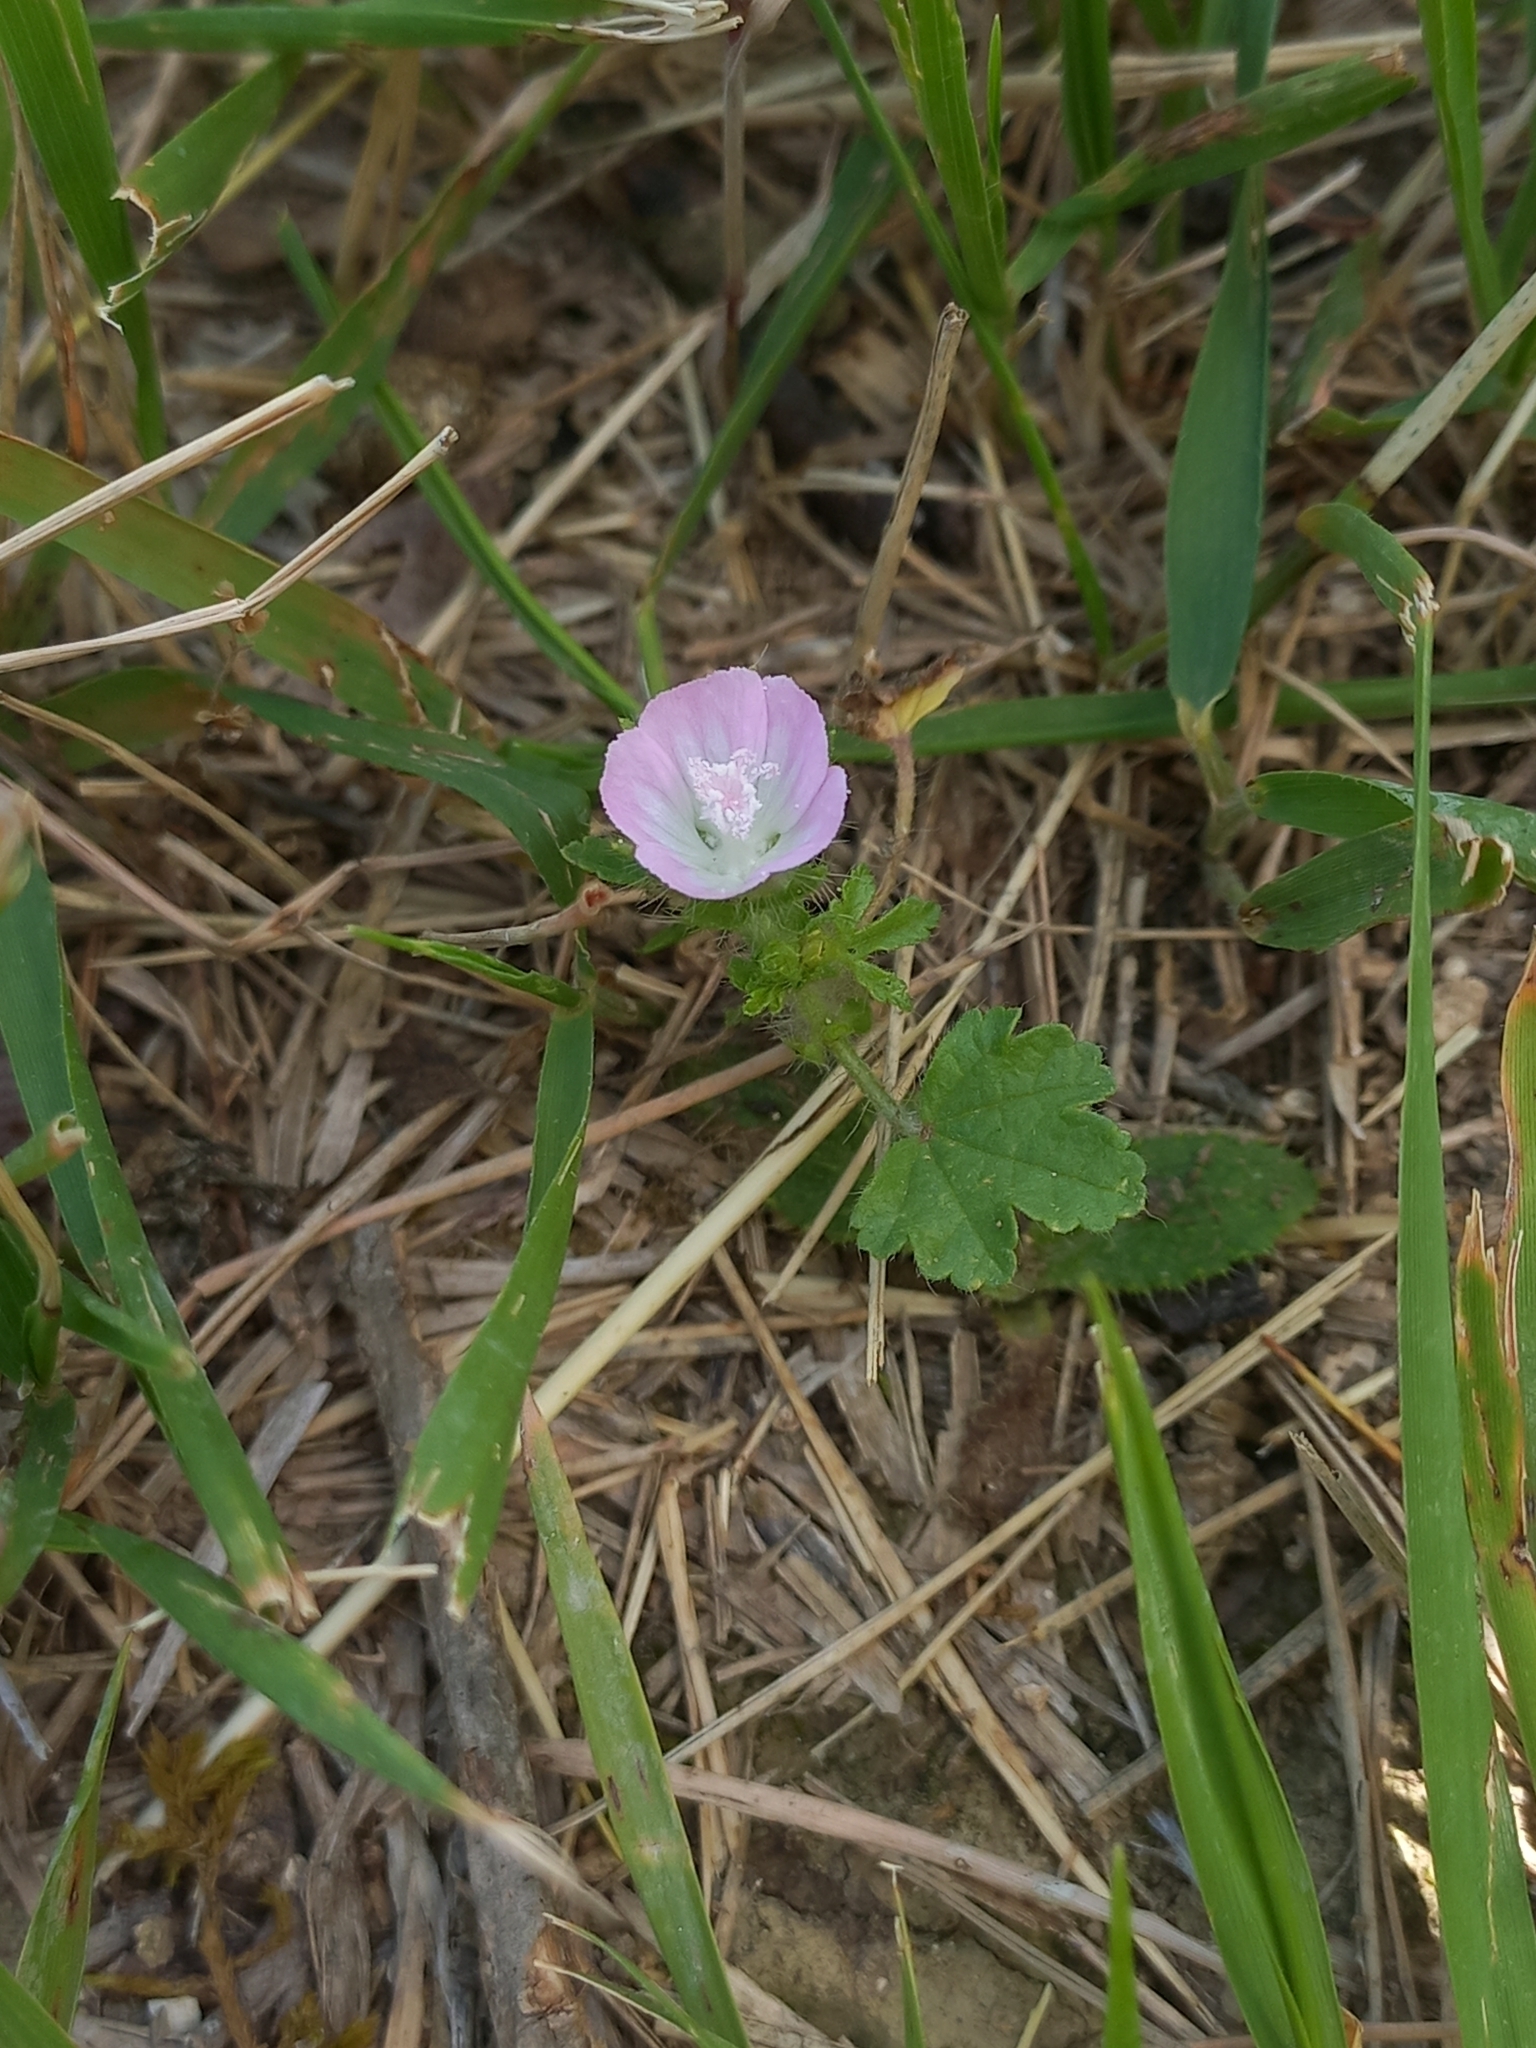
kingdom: Plantae
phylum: Tracheophyta
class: Magnoliopsida
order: Malvales
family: Malvaceae
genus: Althaea
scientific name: Althaea hirsuta
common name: Rough marsh-mallow
